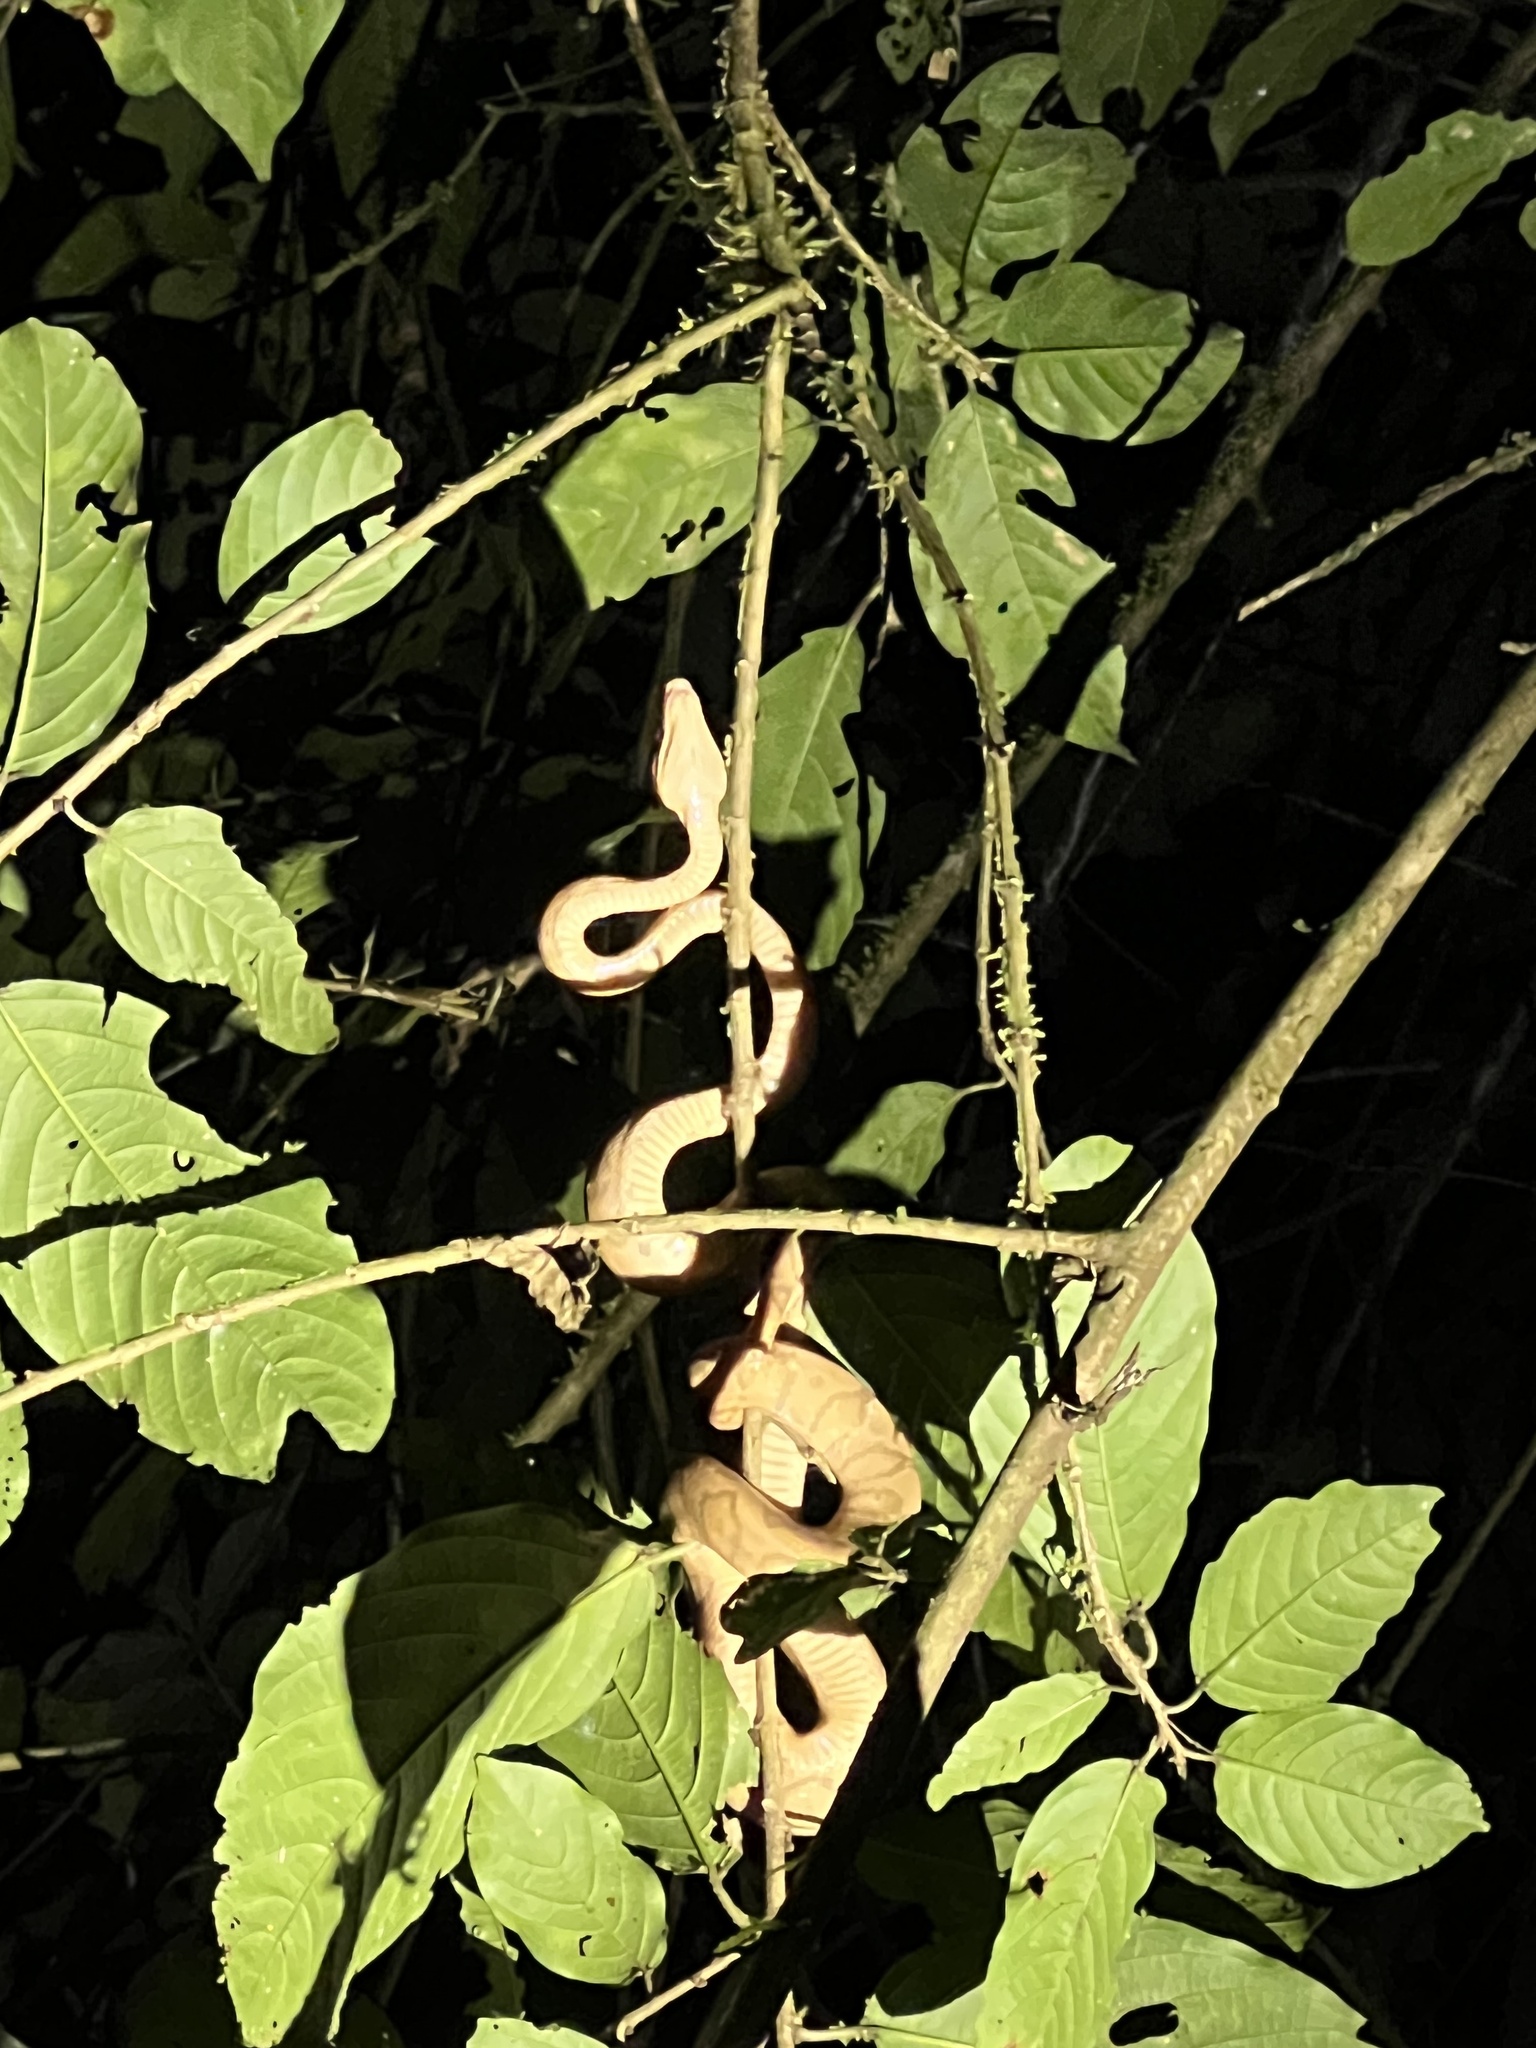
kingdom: Animalia
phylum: Chordata
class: Squamata
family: Boidae
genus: Corallus
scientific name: Corallus annulatus
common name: Ringed tree boa
